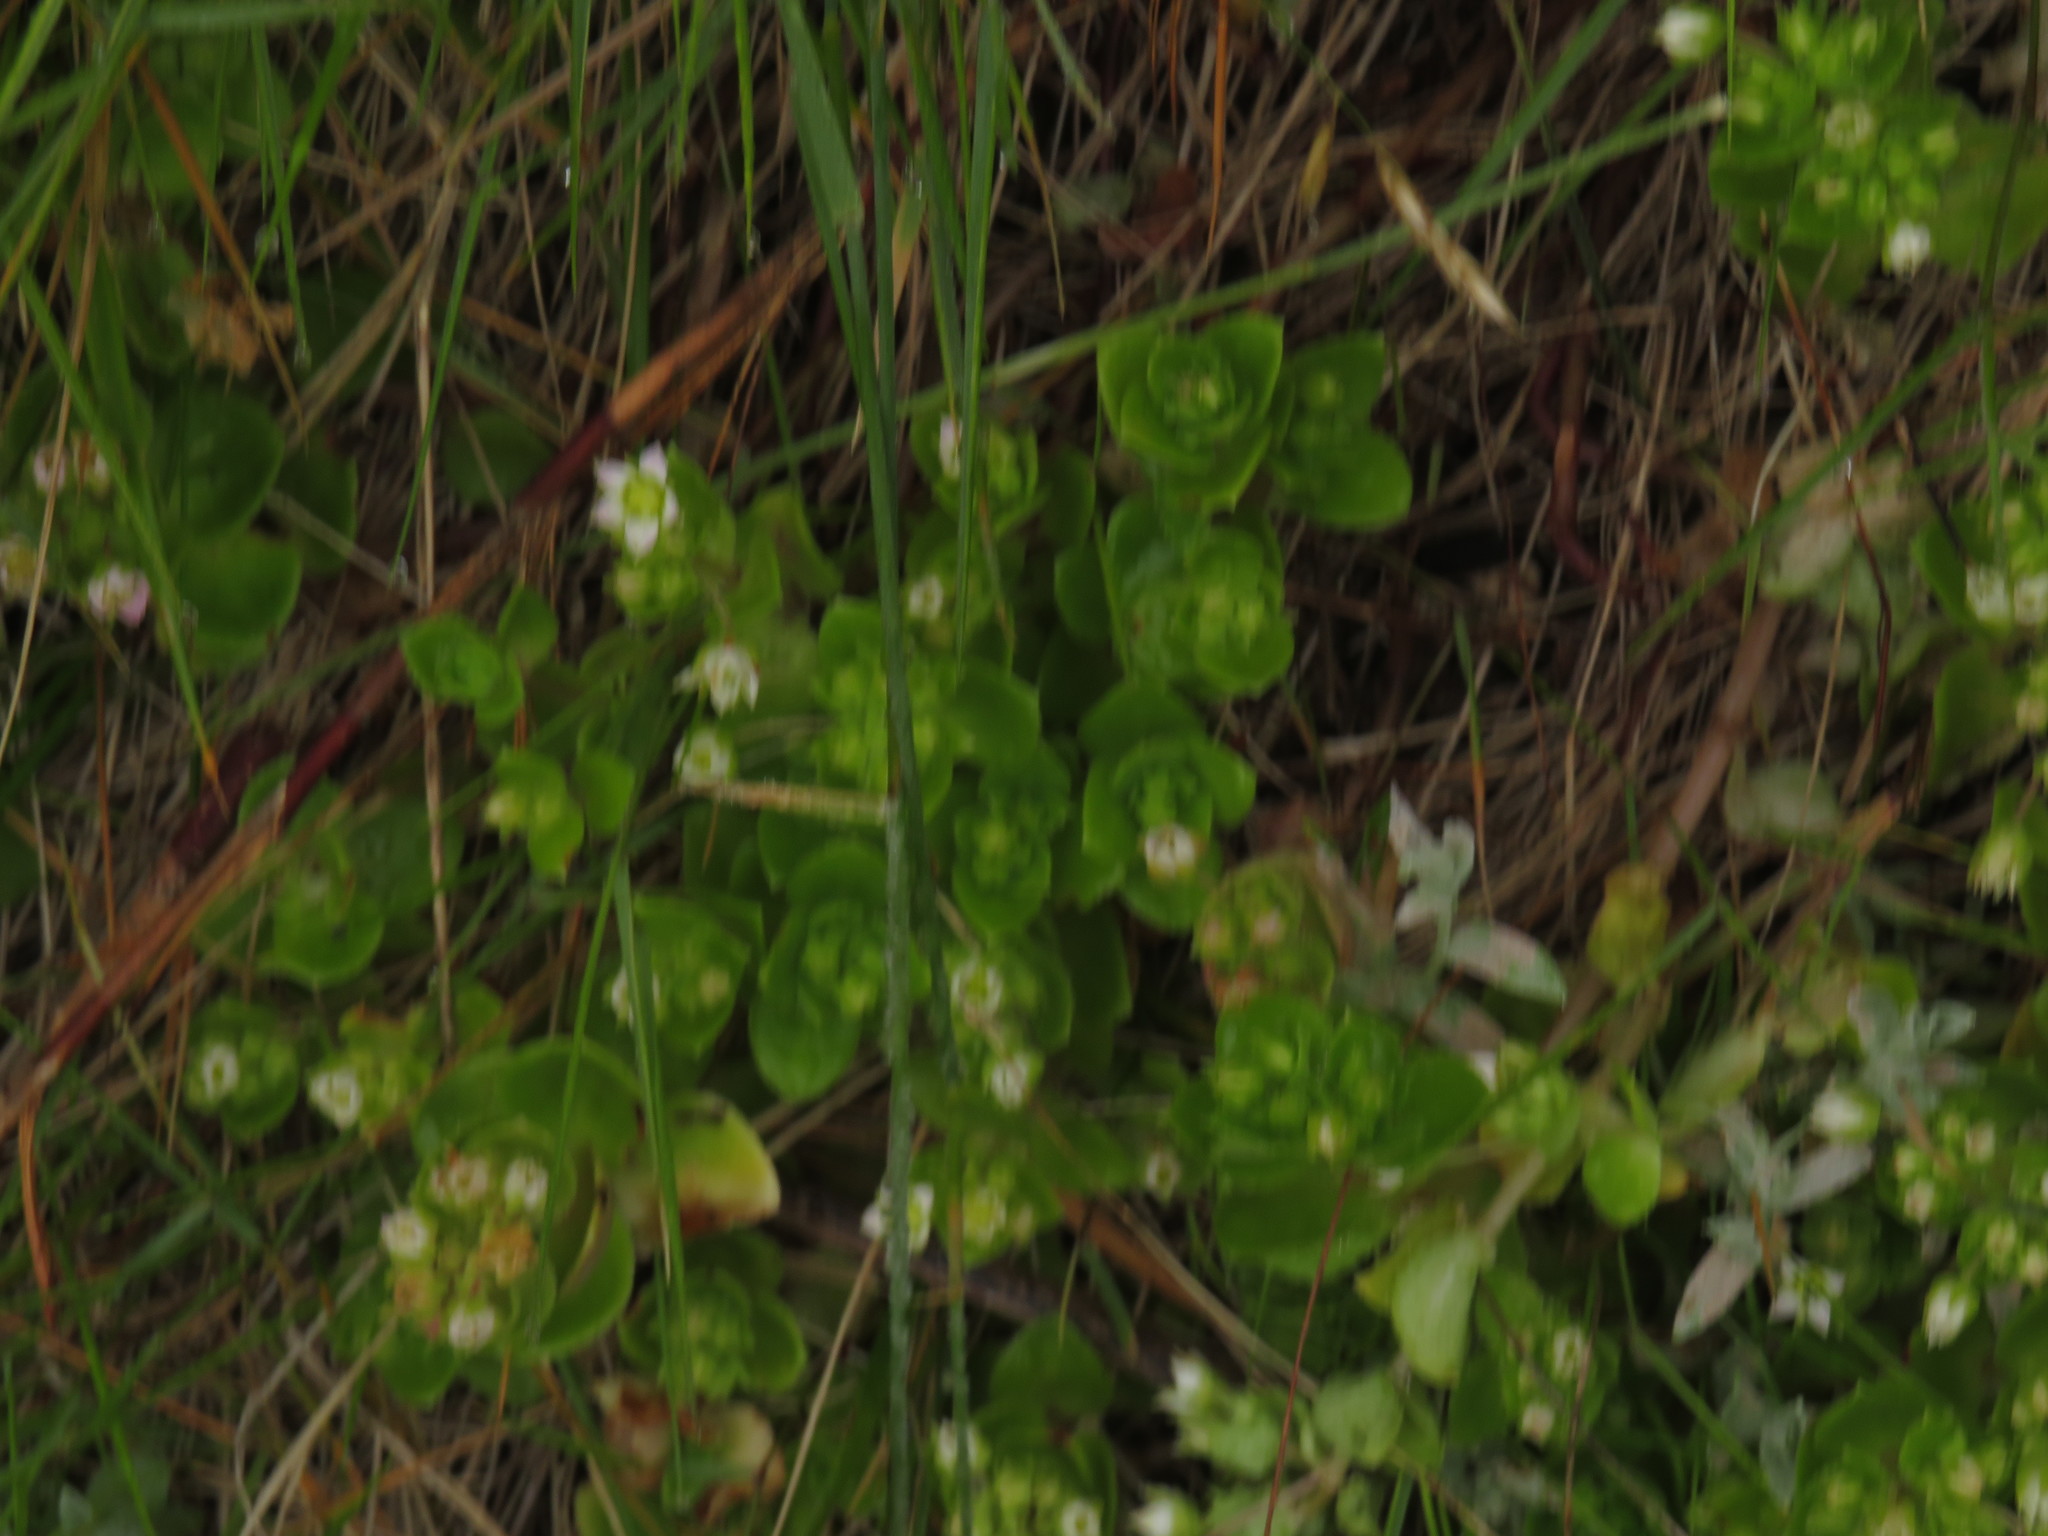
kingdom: Plantae
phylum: Tracheophyta
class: Magnoliopsida
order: Saxifragales
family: Crassulaceae
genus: Crassula
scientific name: Crassula pellucida
